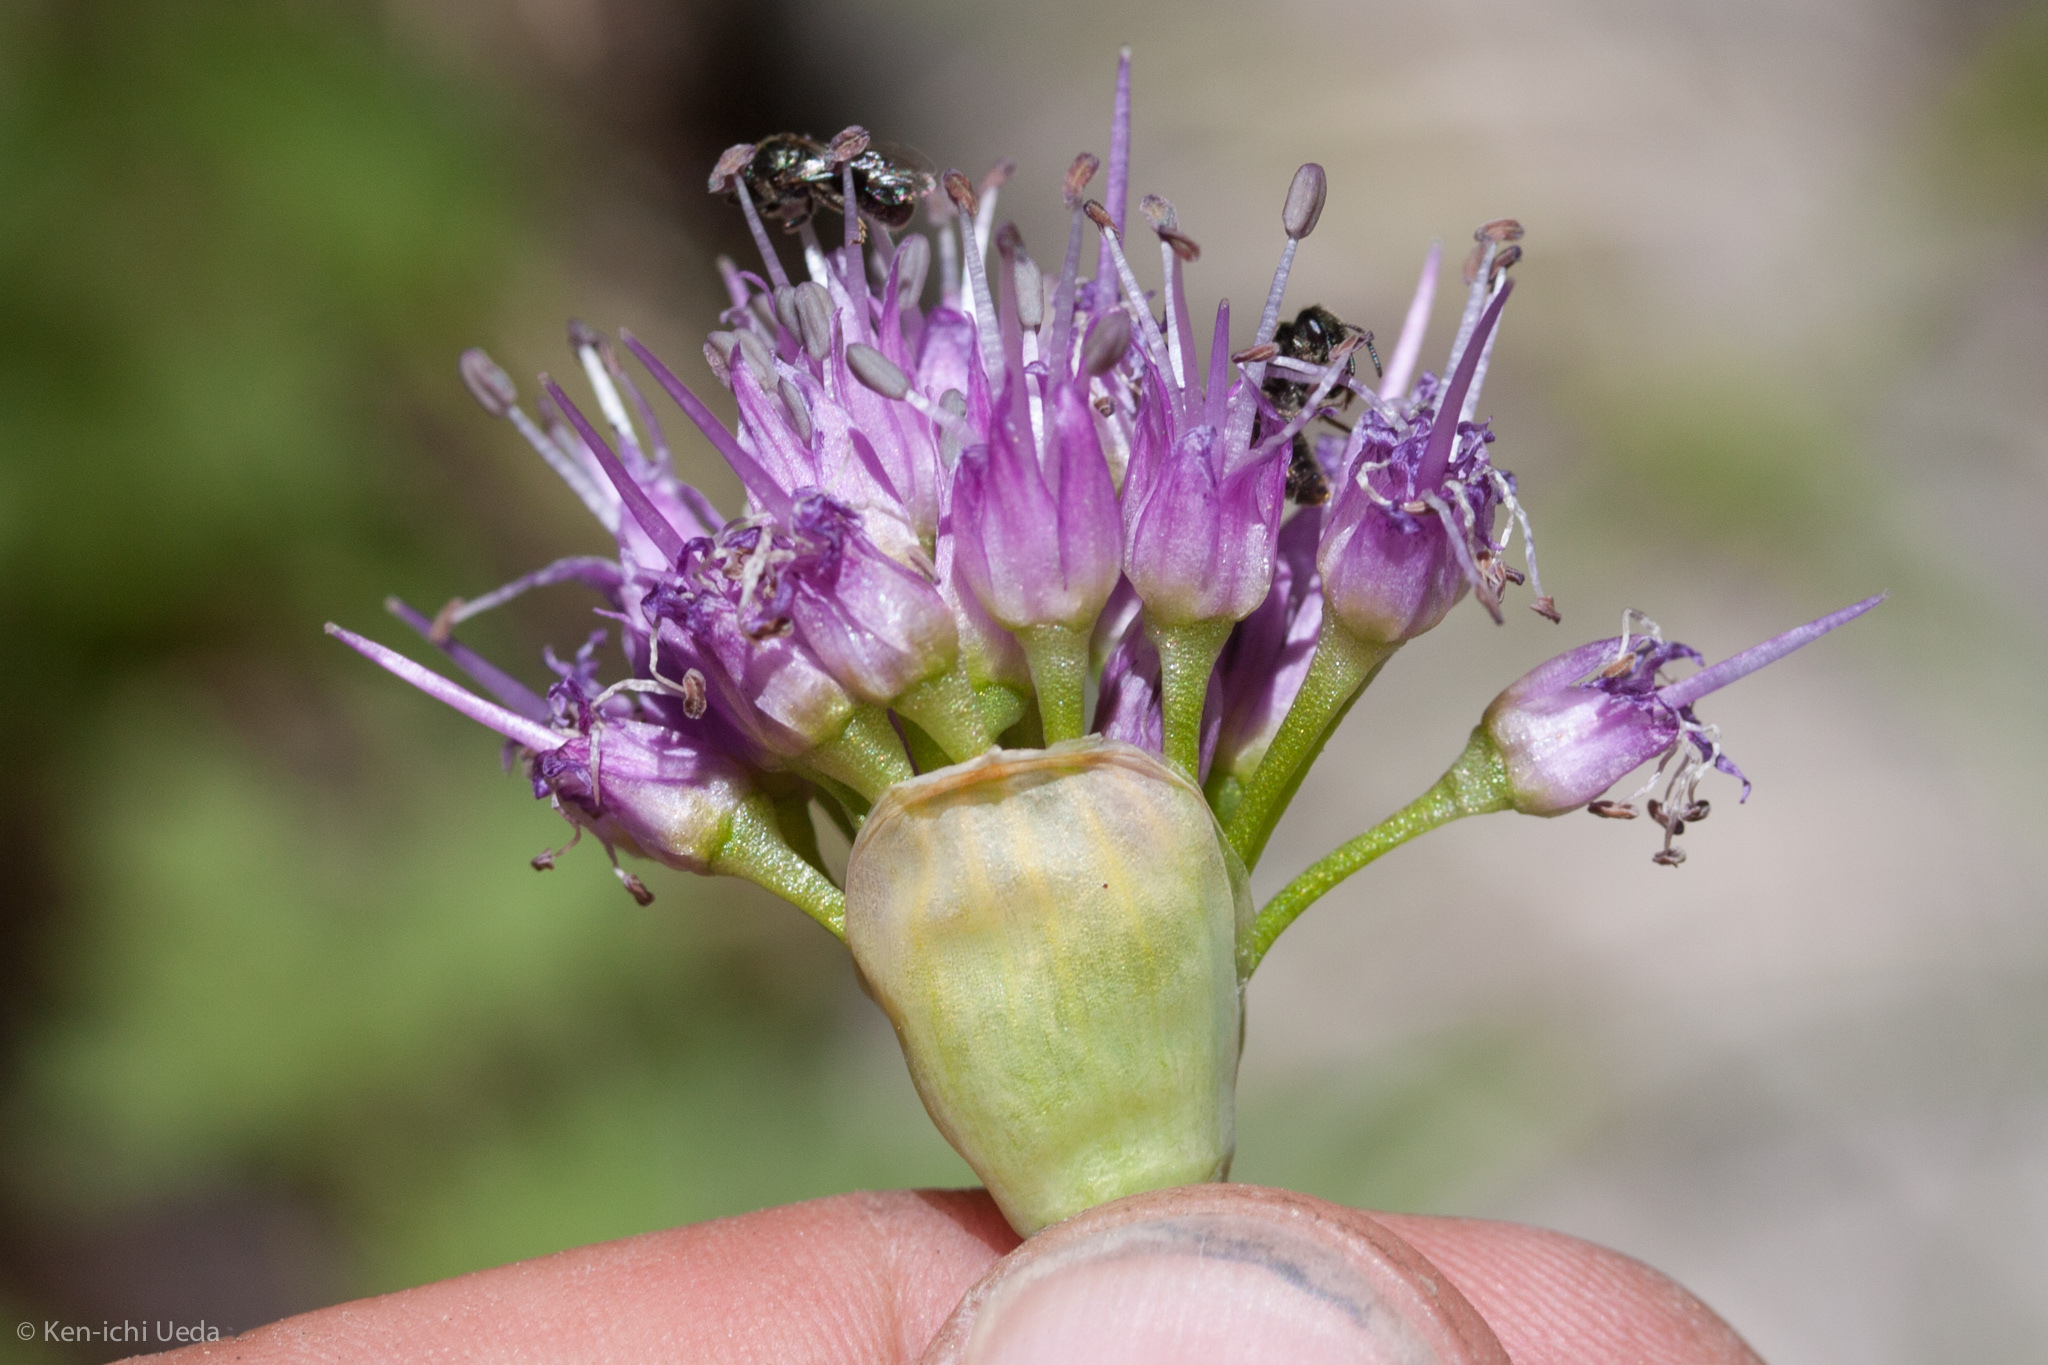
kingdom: Plantae
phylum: Tracheophyta
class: Liliopsida
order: Asparagales
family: Amaryllidaceae
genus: Allium
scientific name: Allium validum
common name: Pacific mountain onion
